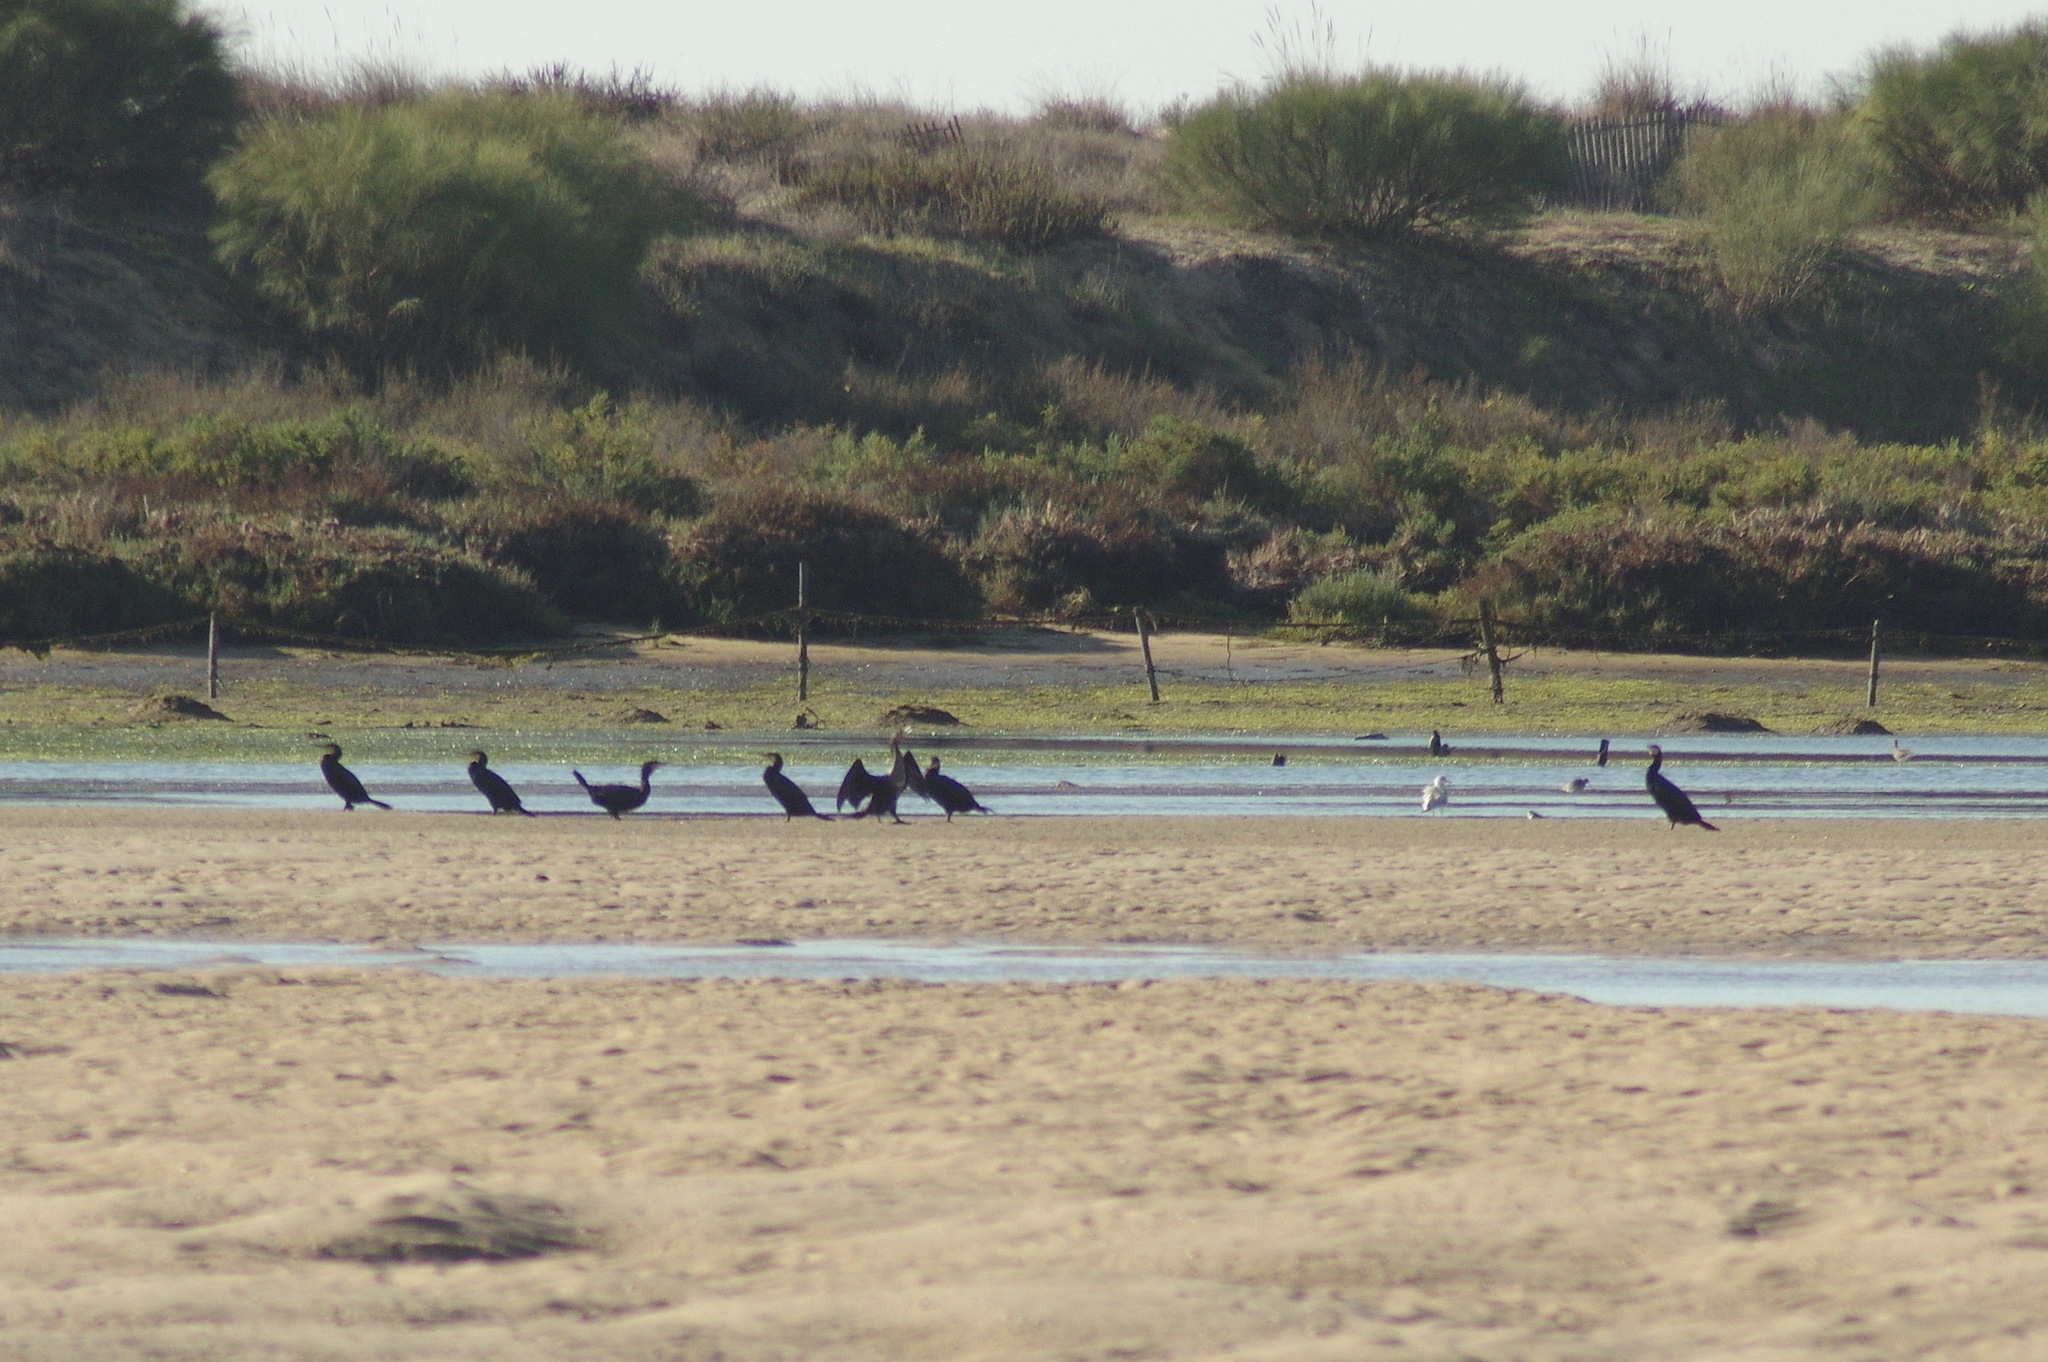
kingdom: Animalia
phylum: Chordata
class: Aves
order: Suliformes
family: Phalacrocoracidae
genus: Phalacrocorax
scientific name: Phalacrocorax carbo
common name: Great cormorant
